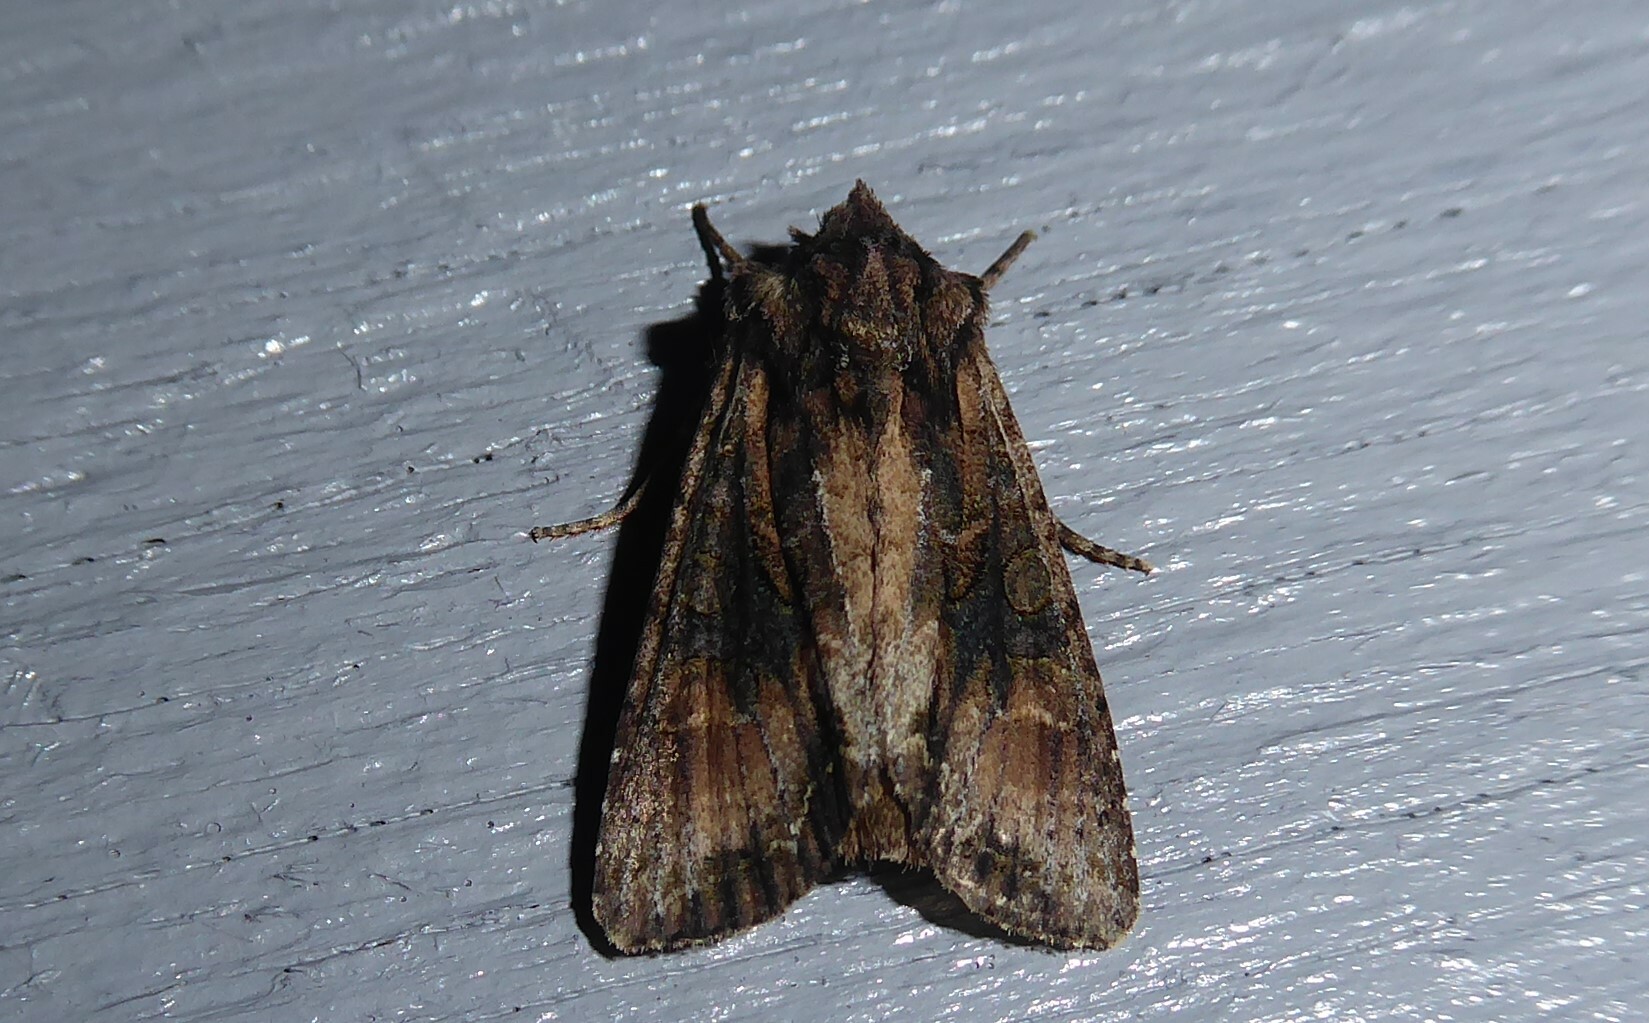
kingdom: Animalia
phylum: Arthropoda
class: Insecta
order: Lepidoptera
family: Noctuidae
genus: Ichneutica
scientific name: Ichneutica mutans
